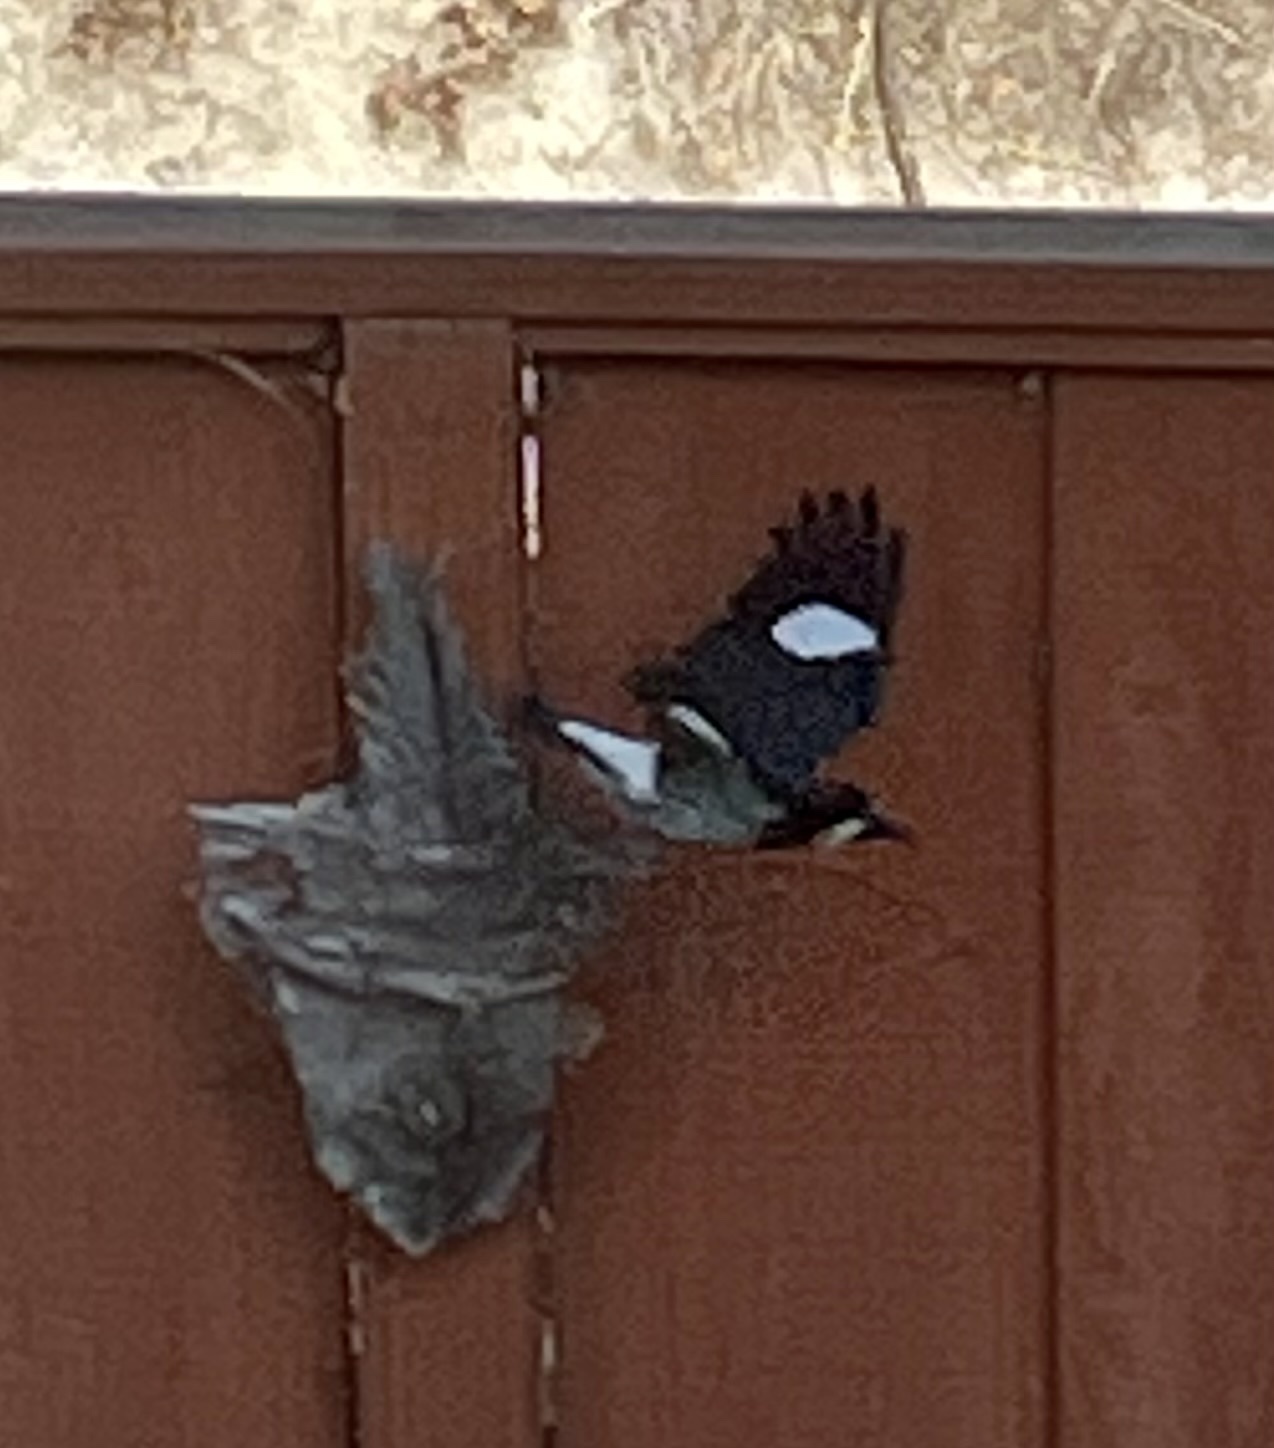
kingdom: Animalia
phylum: Chordata
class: Aves
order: Piciformes
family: Picidae
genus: Melanerpes
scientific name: Melanerpes formicivorus
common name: Acorn woodpecker
